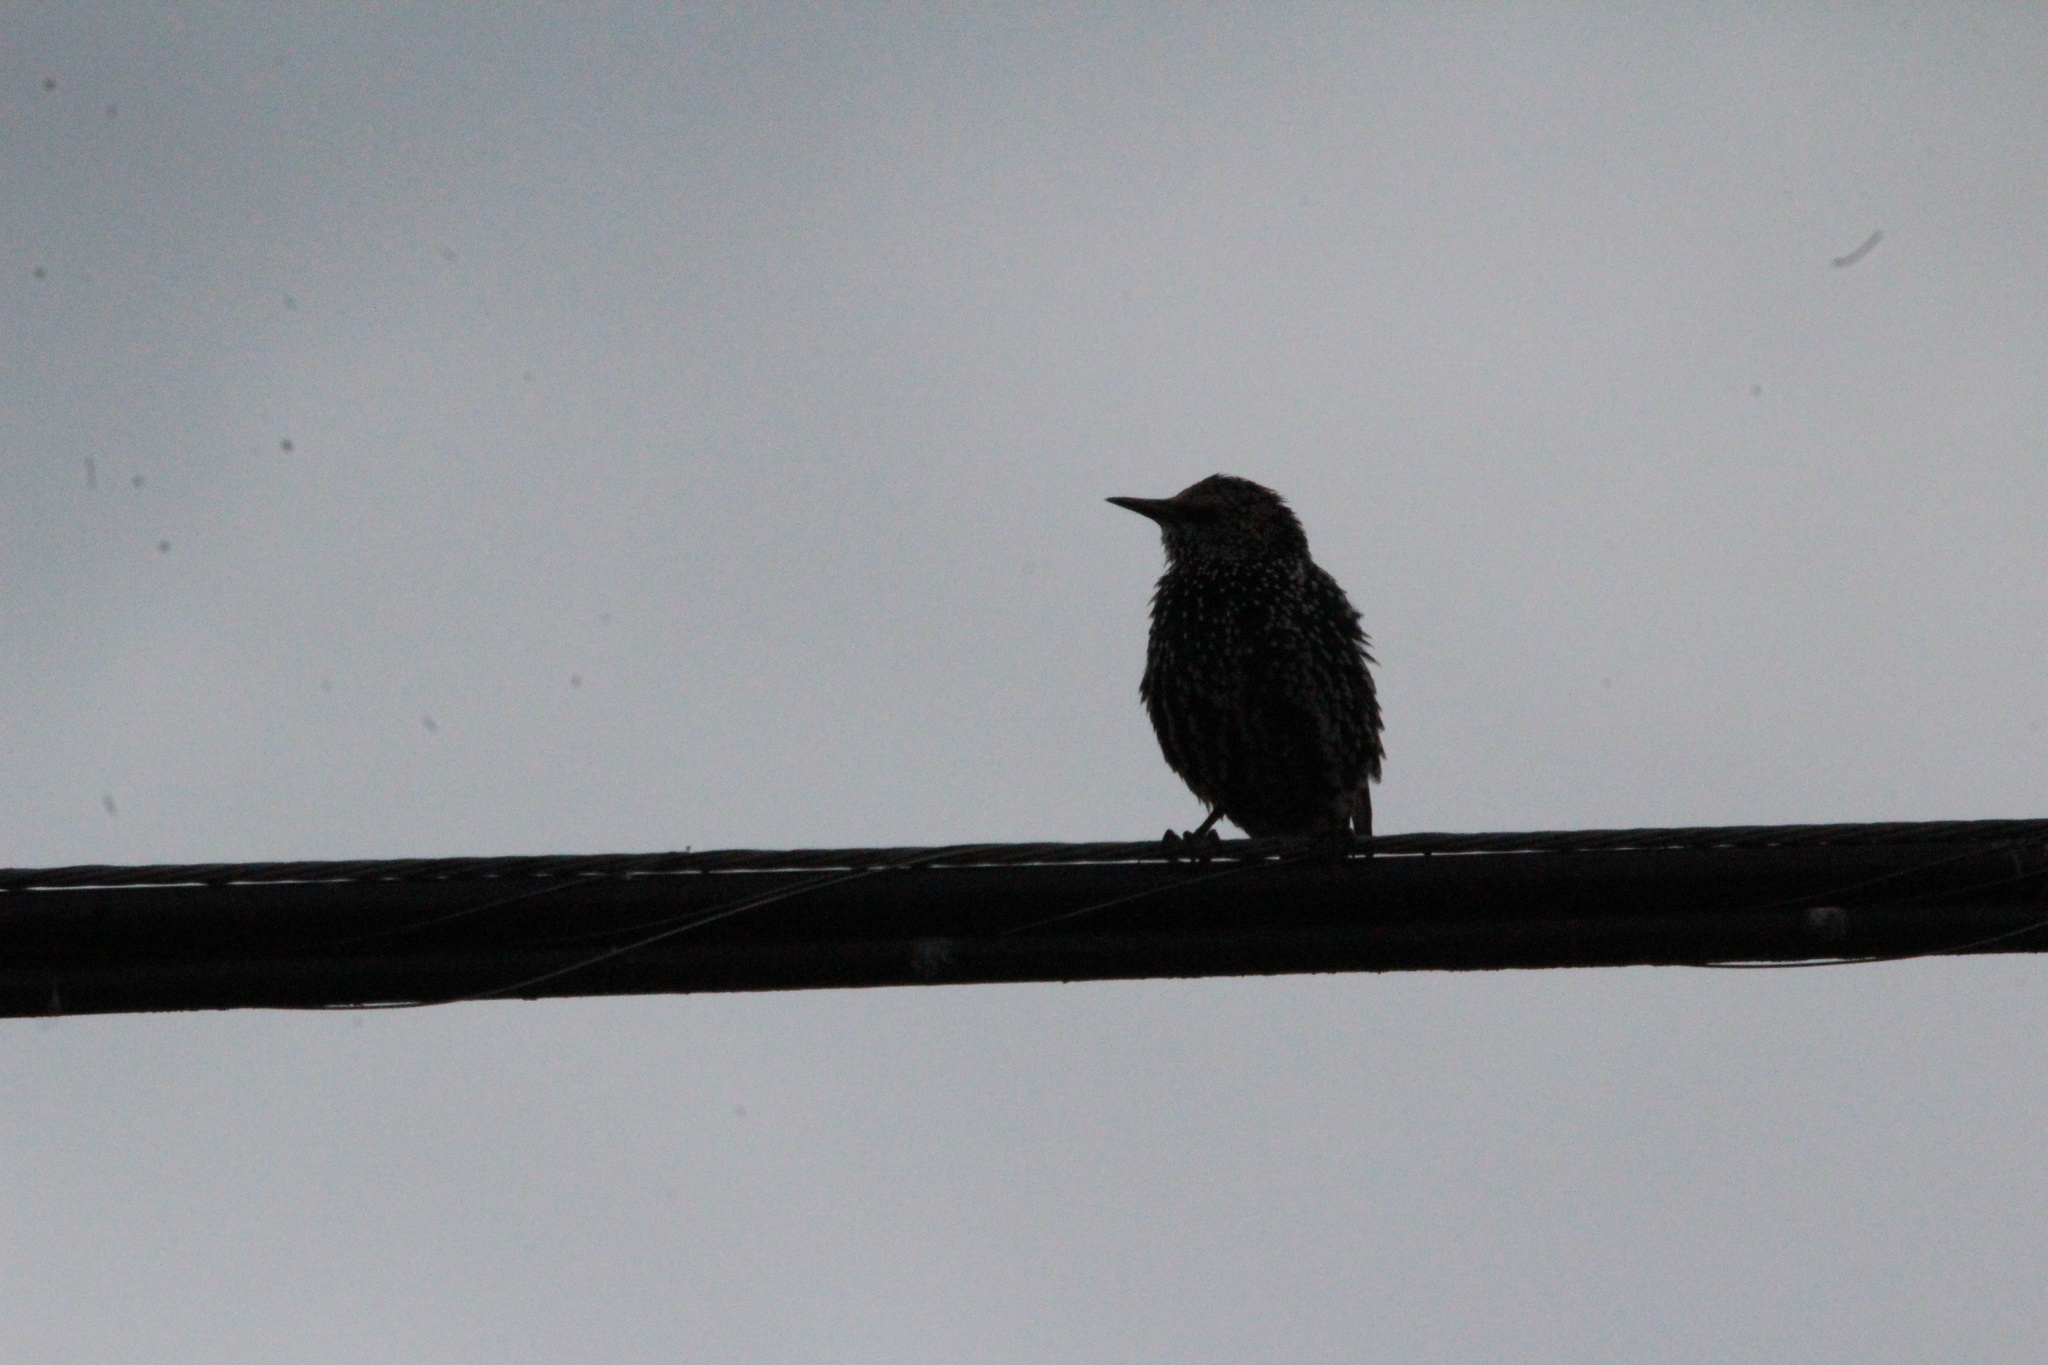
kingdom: Animalia
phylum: Chordata
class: Aves
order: Passeriformes
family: Sturnidae
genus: Sturnus
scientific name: Sturnus vulgaris
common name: Common starling
